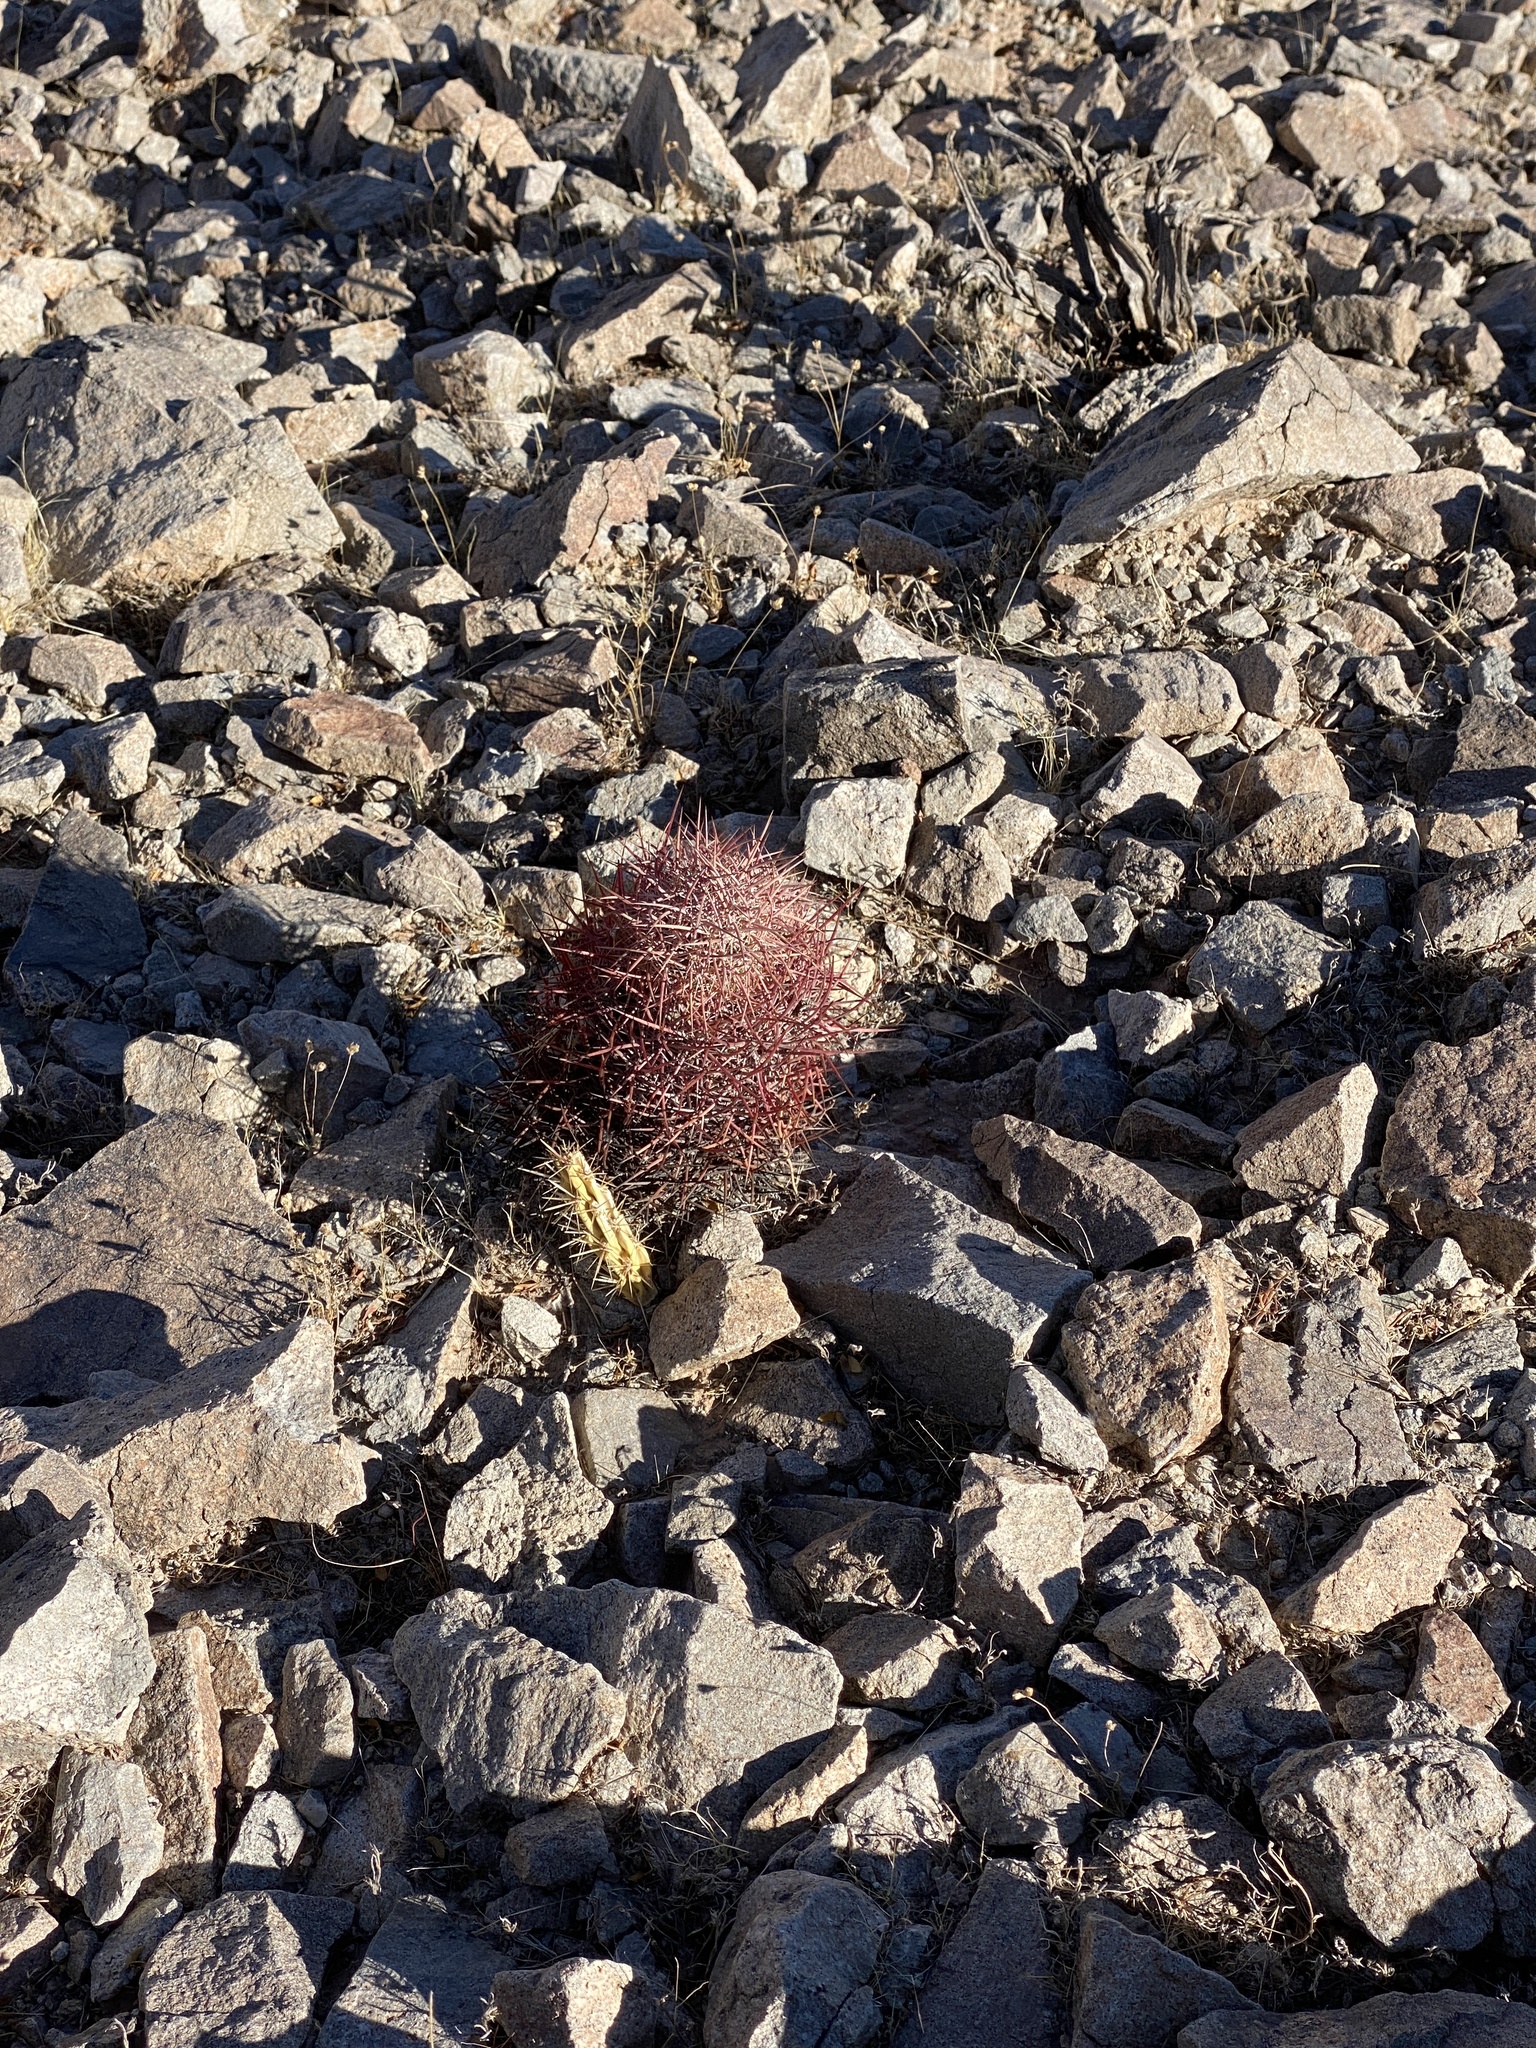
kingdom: Plantae
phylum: Tracheophyta
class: Magnoliopsida
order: Caryophyllales
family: Cactaceae
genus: Sclerocactus
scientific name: Sclerocactus johnsonii
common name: Eight-spine fishhook cactus
